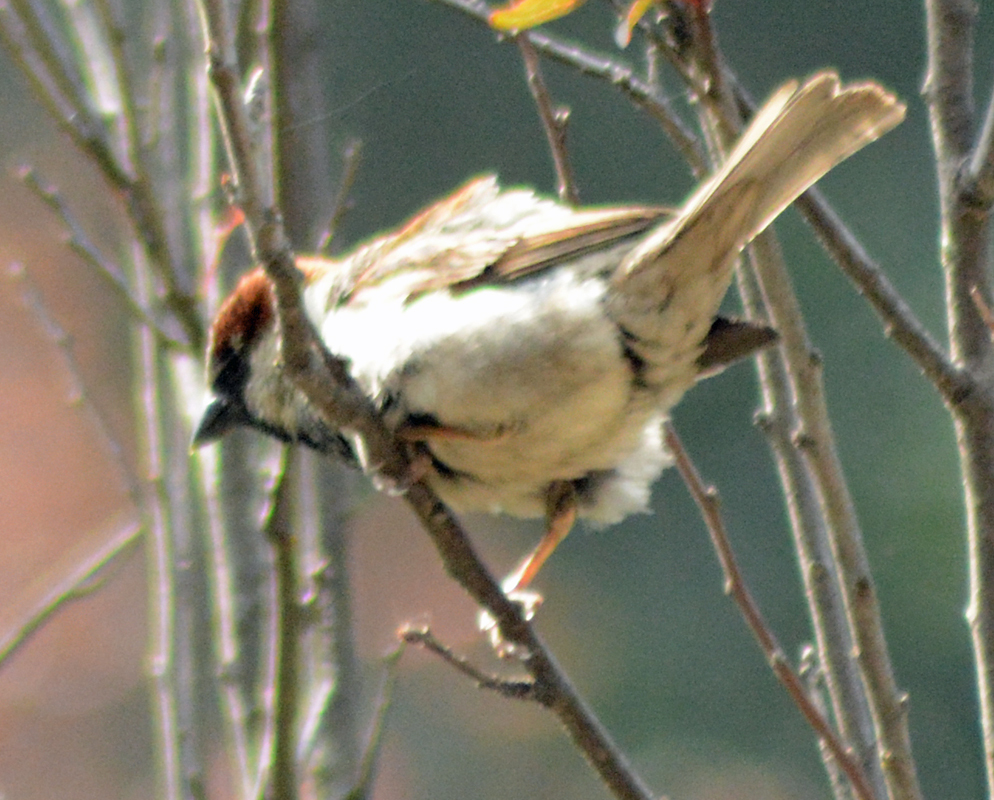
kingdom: Animalia
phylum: Chordata
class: Aves
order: Passeriformes
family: Passeridae
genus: Passer
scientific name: Passer domesticus
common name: House sparrow
